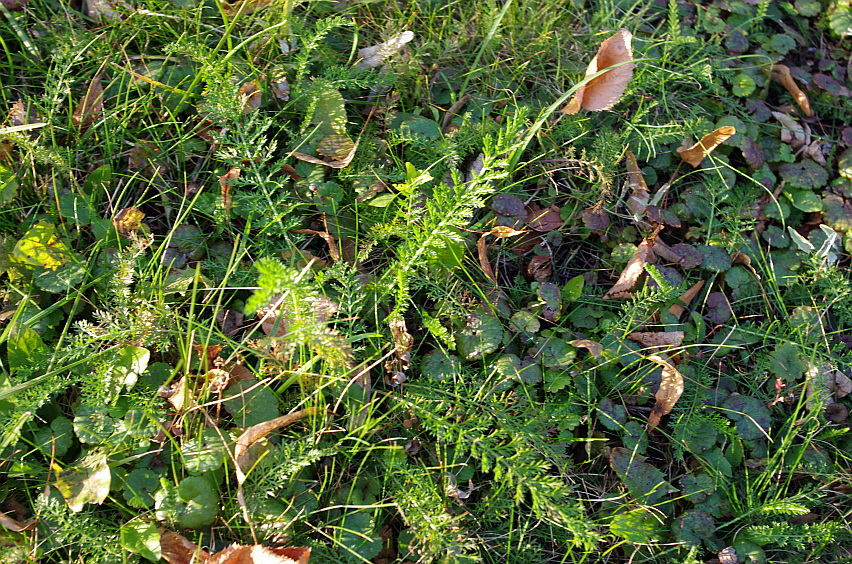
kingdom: Plantae
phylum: Tracheophyta
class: Magnoliopsida
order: Asterales
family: Asteraceae
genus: Achillea
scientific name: Achillea millefolium
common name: Yarrow
